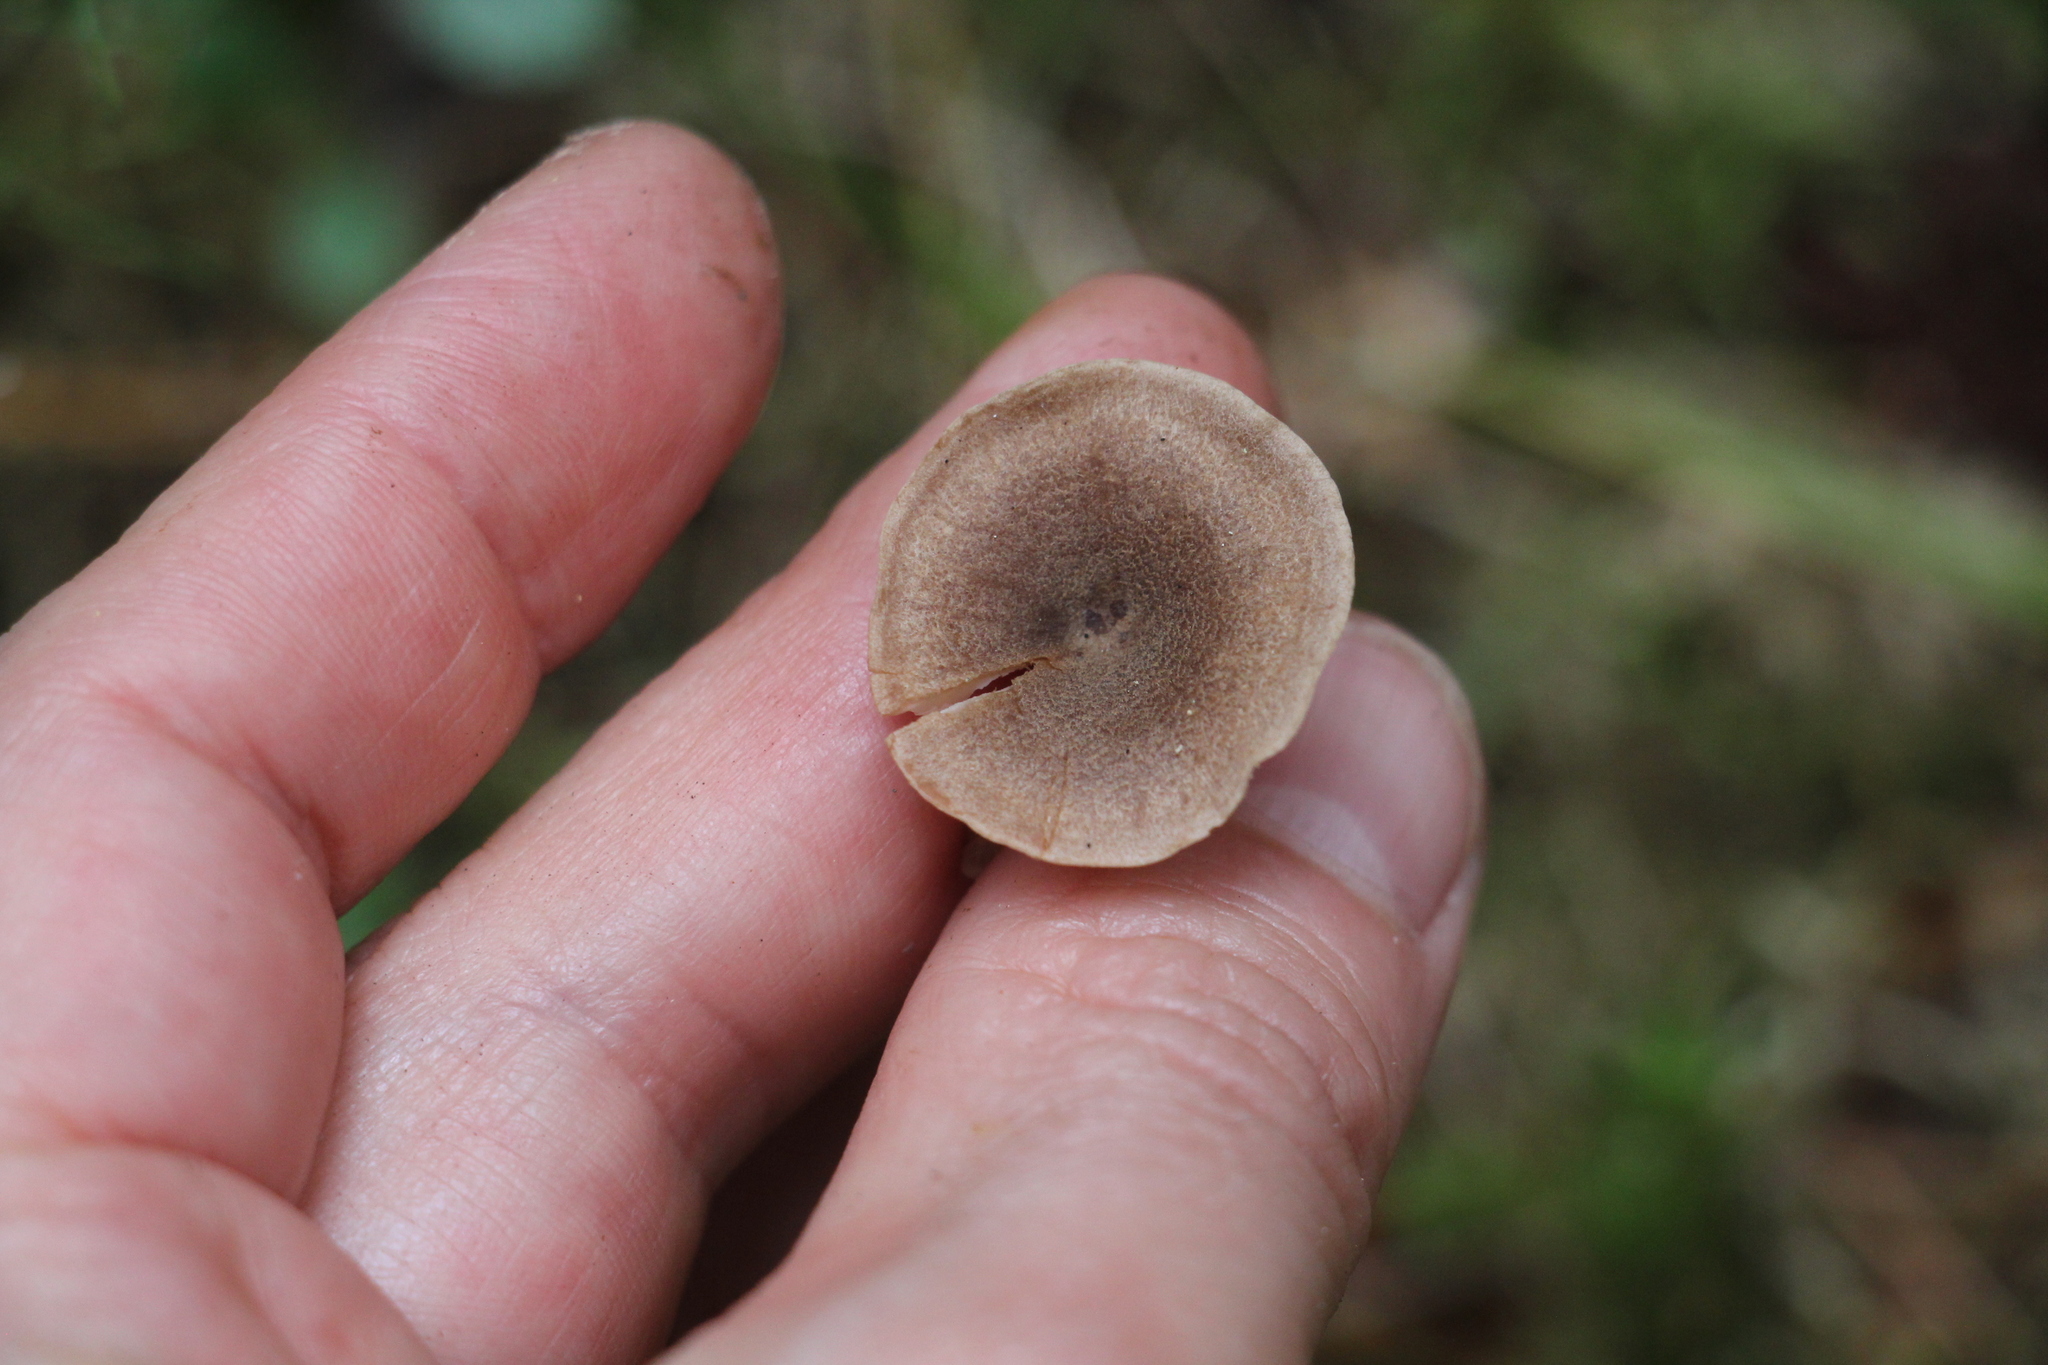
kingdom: Fungi
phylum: Basidiomycota
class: Agaricomycetes
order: Agaricales
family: Callistosporiaceae
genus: Pseudolaccaria
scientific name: Pseudolaccaria pachyphylla
